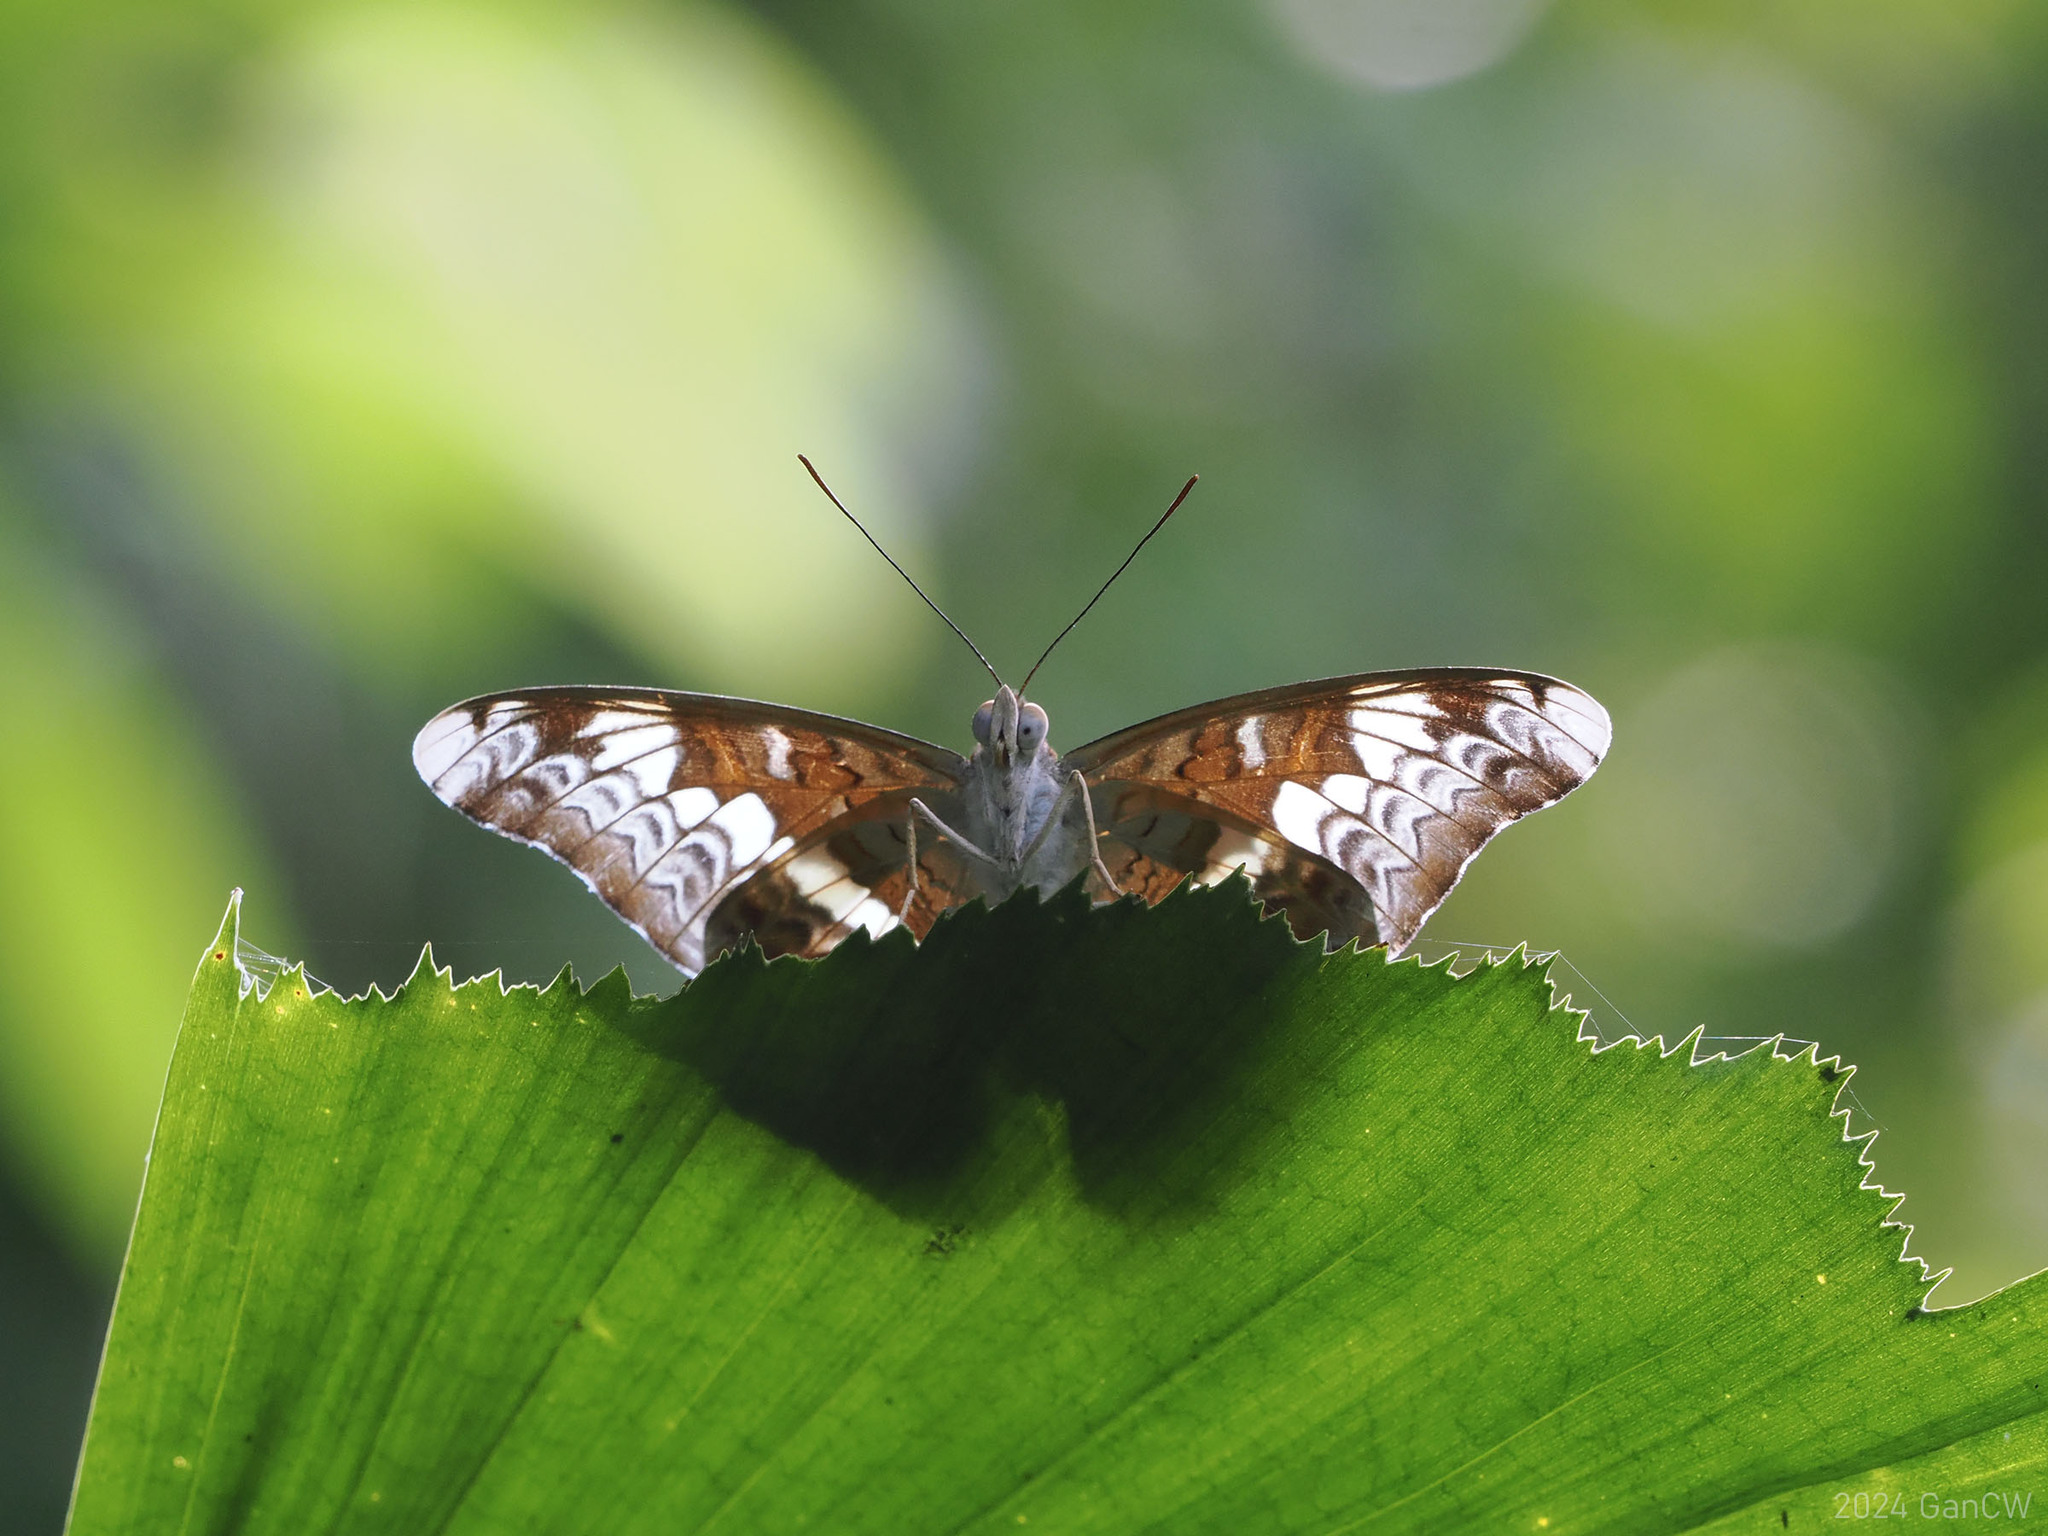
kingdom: Animalia
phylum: Arthropoda
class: Insecta
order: Lepidoptera
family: Nymphalidae
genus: Lebadea
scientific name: Lebadea martha
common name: Knight
